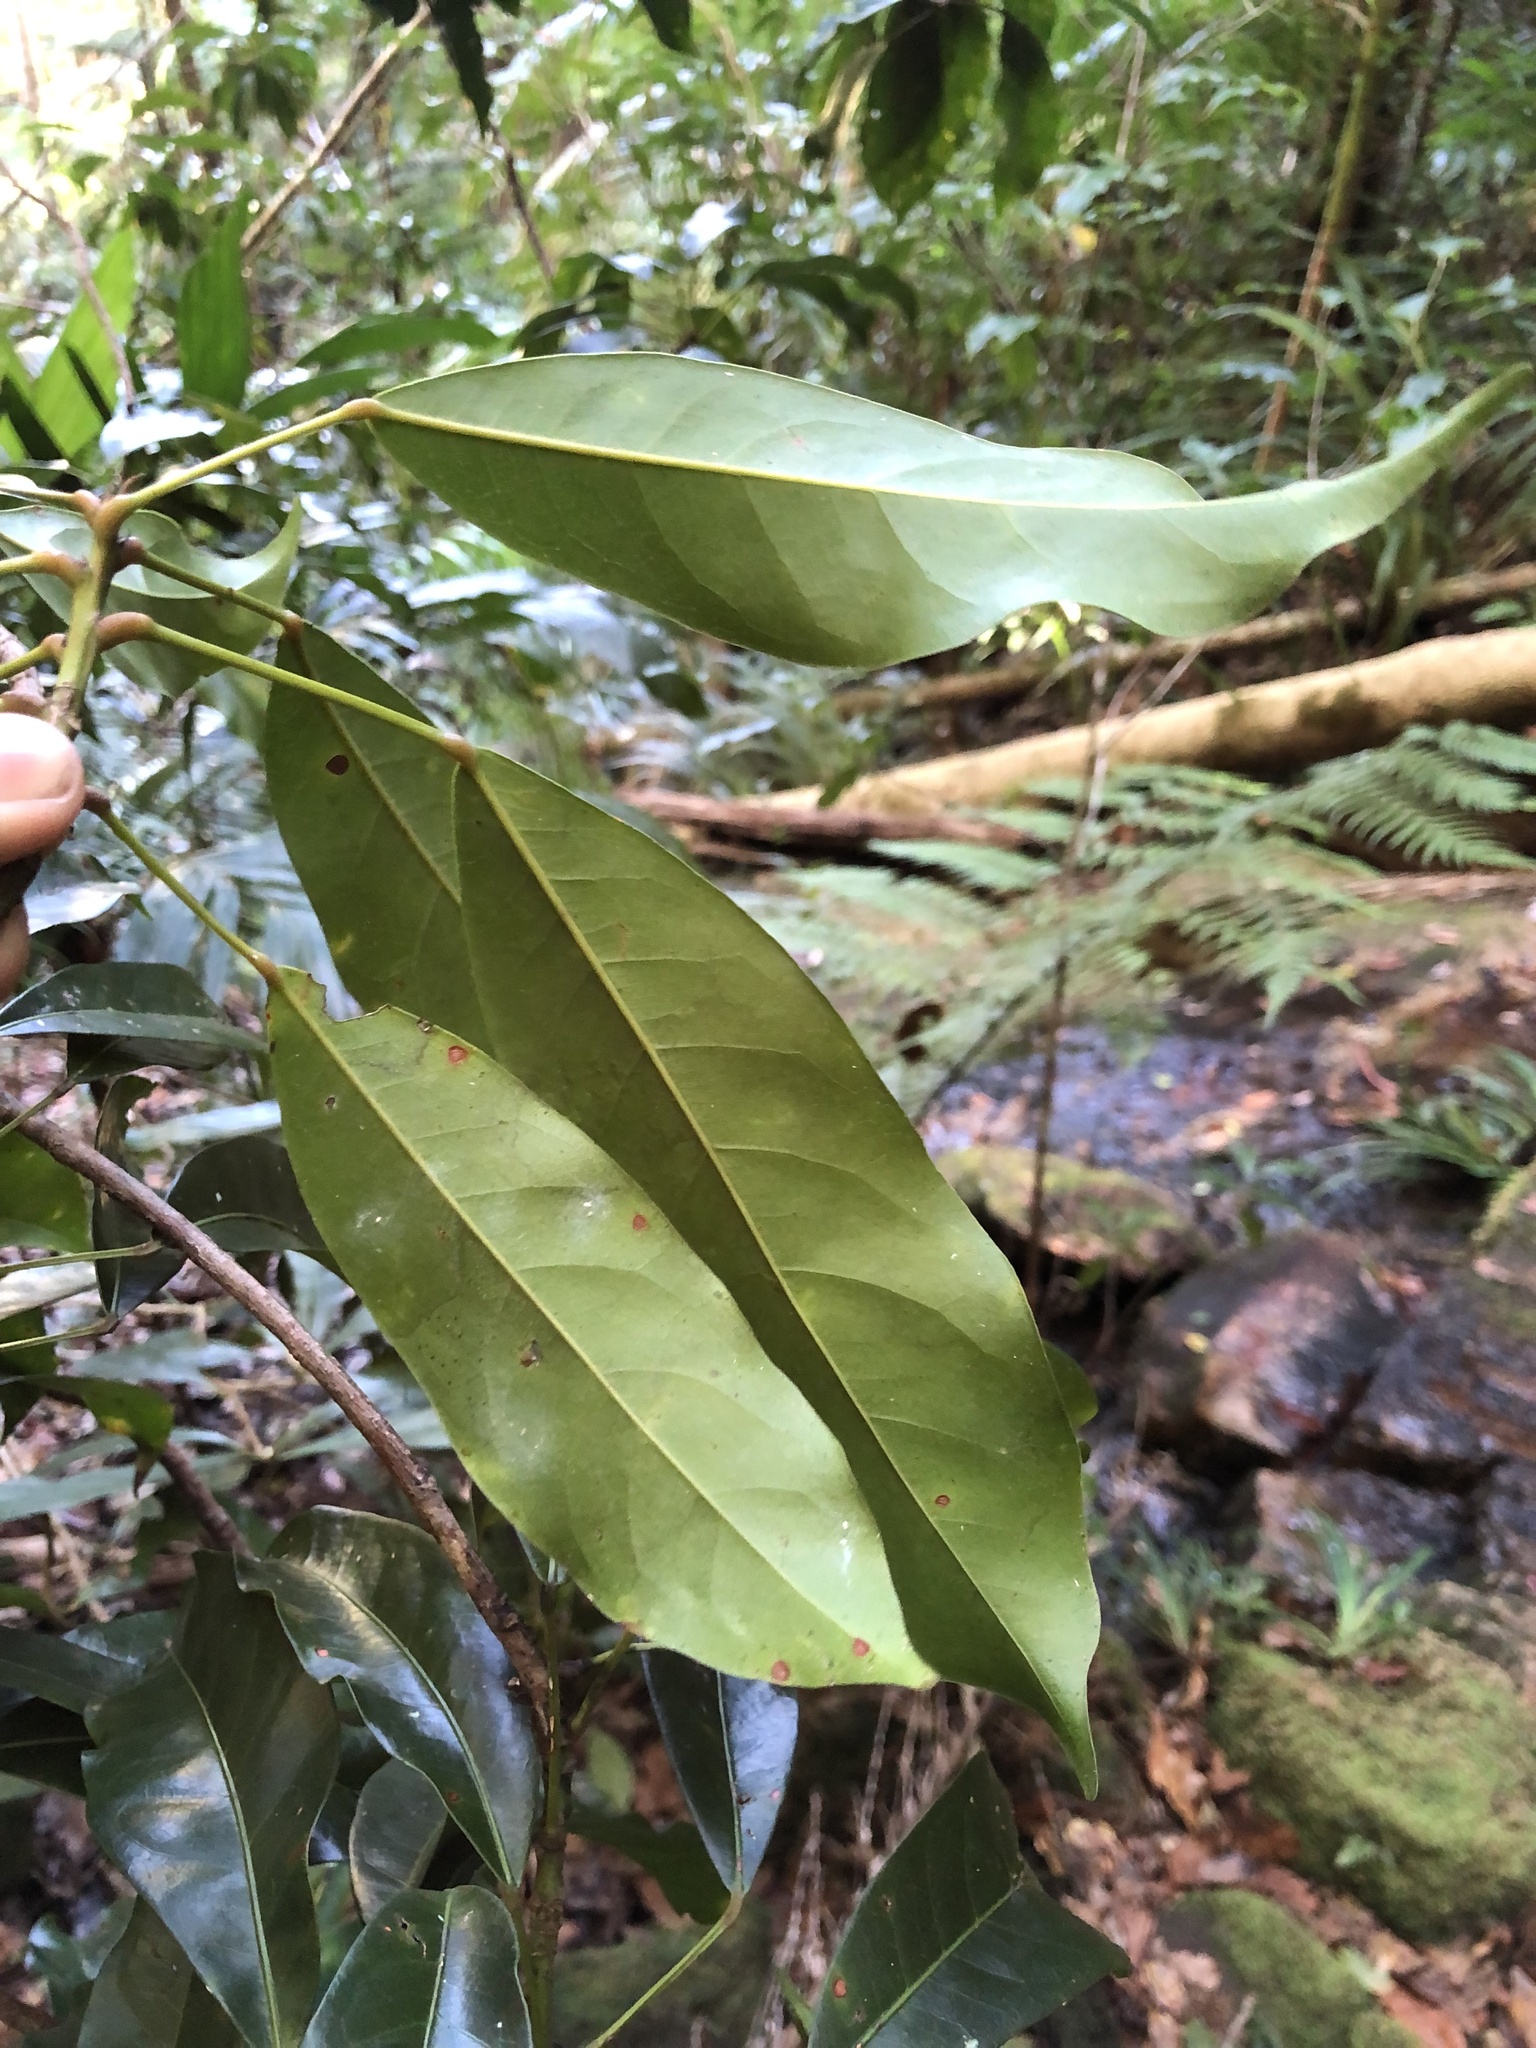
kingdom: Plantae
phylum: Tracheophyta
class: Magnoliopsida
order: Oxalidales
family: Elaeocarpaceae
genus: Elaeocarpus
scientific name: Elaeocarpus eumundi
